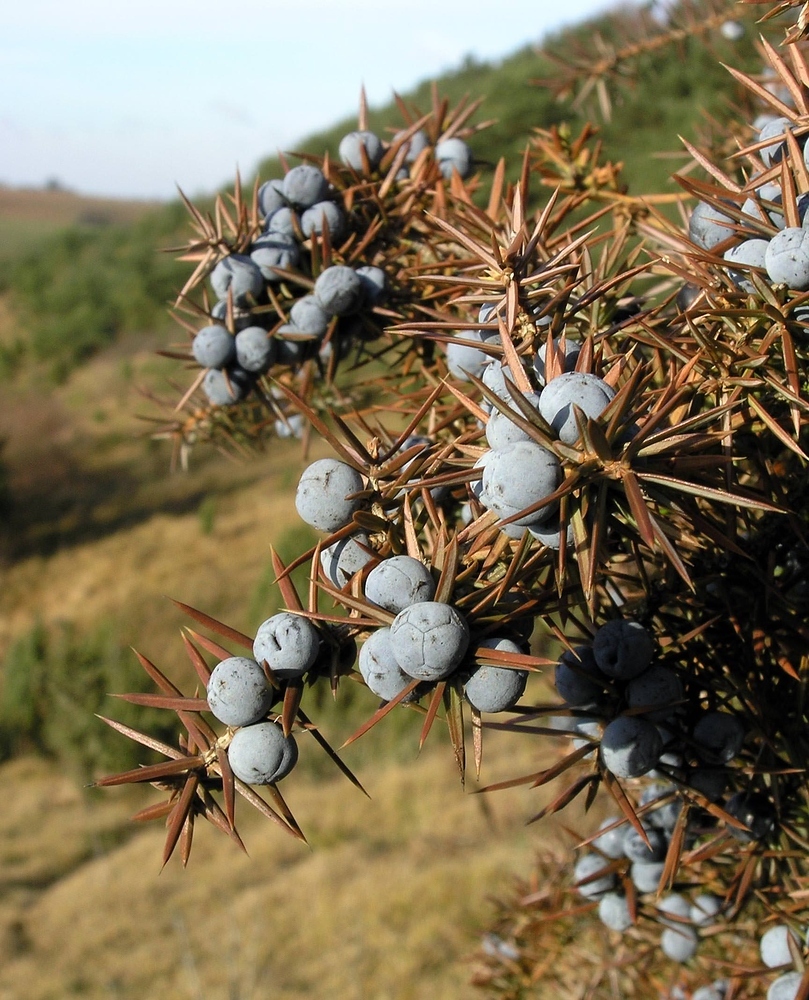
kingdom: Plantae
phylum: Tracheophyta
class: Pinopsida
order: Pinales
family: Cupressaceae
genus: Juniperus
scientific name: Juniperus communis
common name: Common juniper
